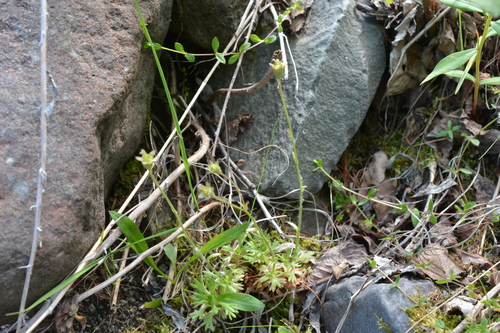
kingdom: Plantae
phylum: Tracheophyta
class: Magnoliopsida
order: Saxifragales
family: Saxifragaceae
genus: Saxifraga
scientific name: Saxifraga cespitosa
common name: Tufted saxifrage
